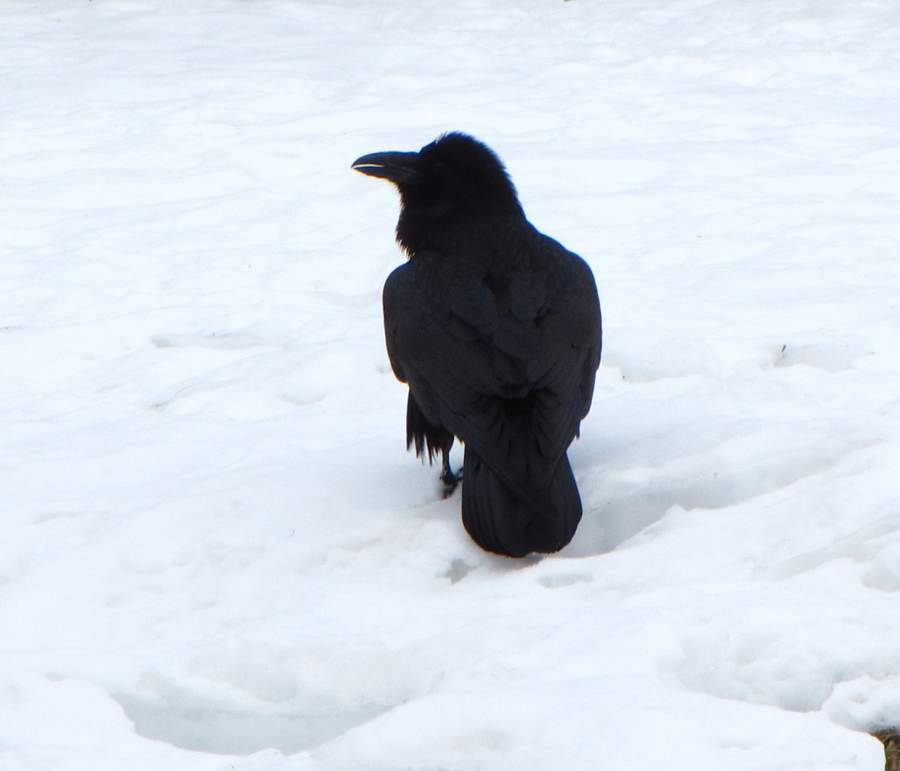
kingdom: Animalia
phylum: Chordata
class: Aves
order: Passeriformes
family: Corvidae
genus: Corvus
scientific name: Corvus corax
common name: Common raven
